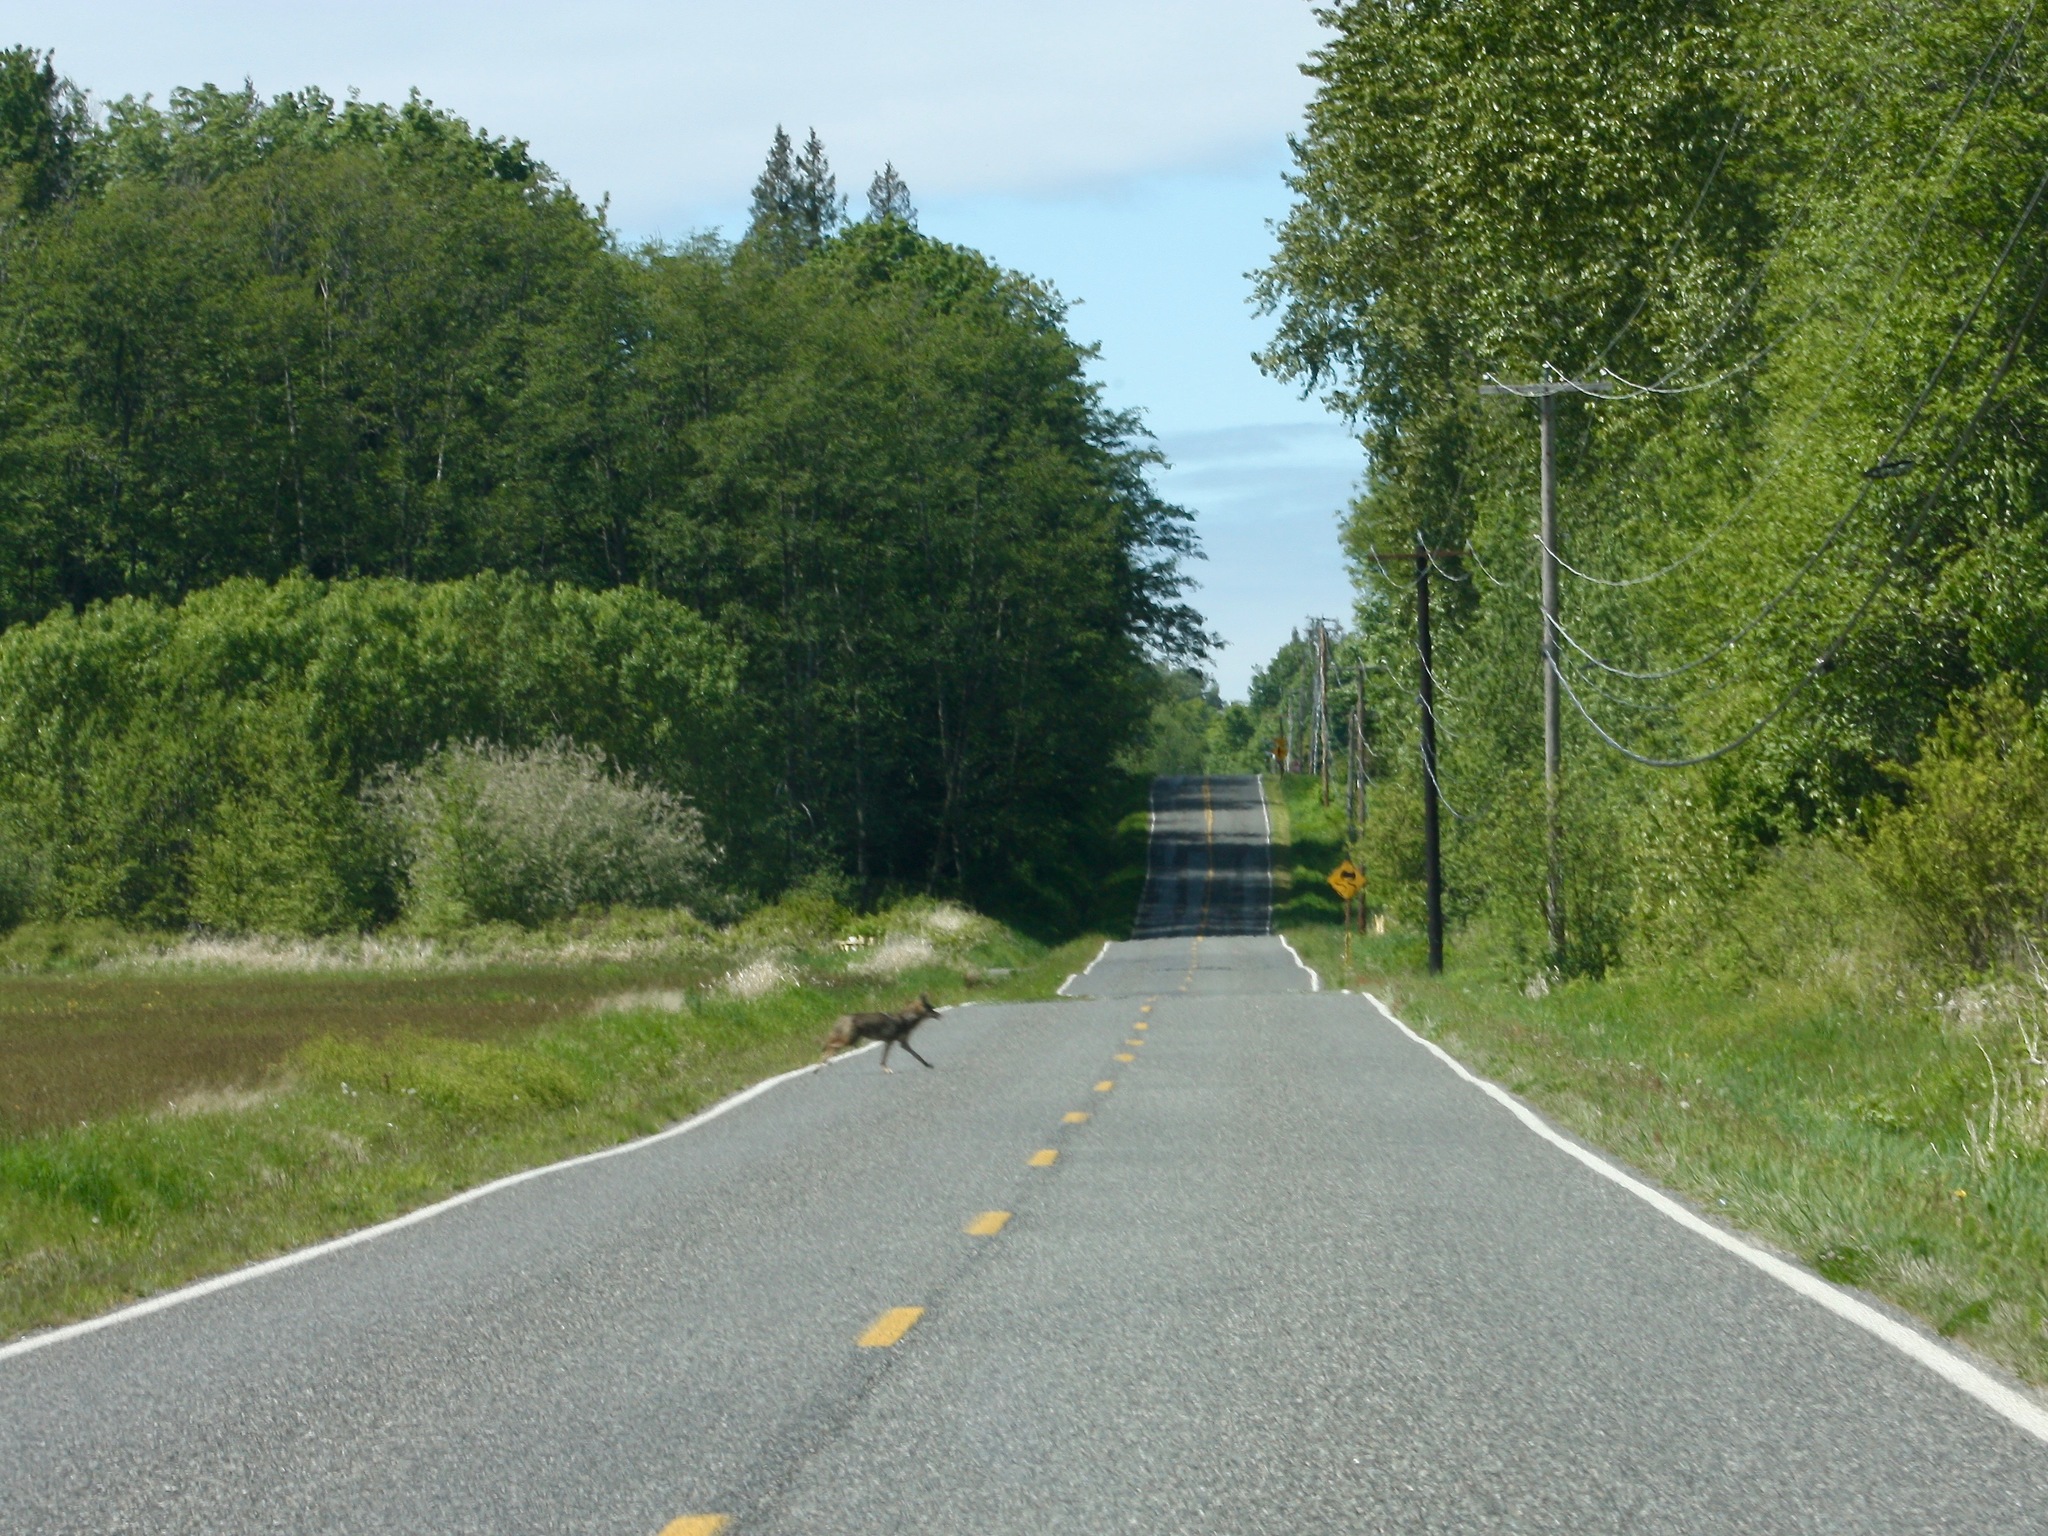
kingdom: Animalia
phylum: Chordata
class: Mammalia
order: Carnivora
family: Canidae
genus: Canis
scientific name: Canis latrans
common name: Coyote
